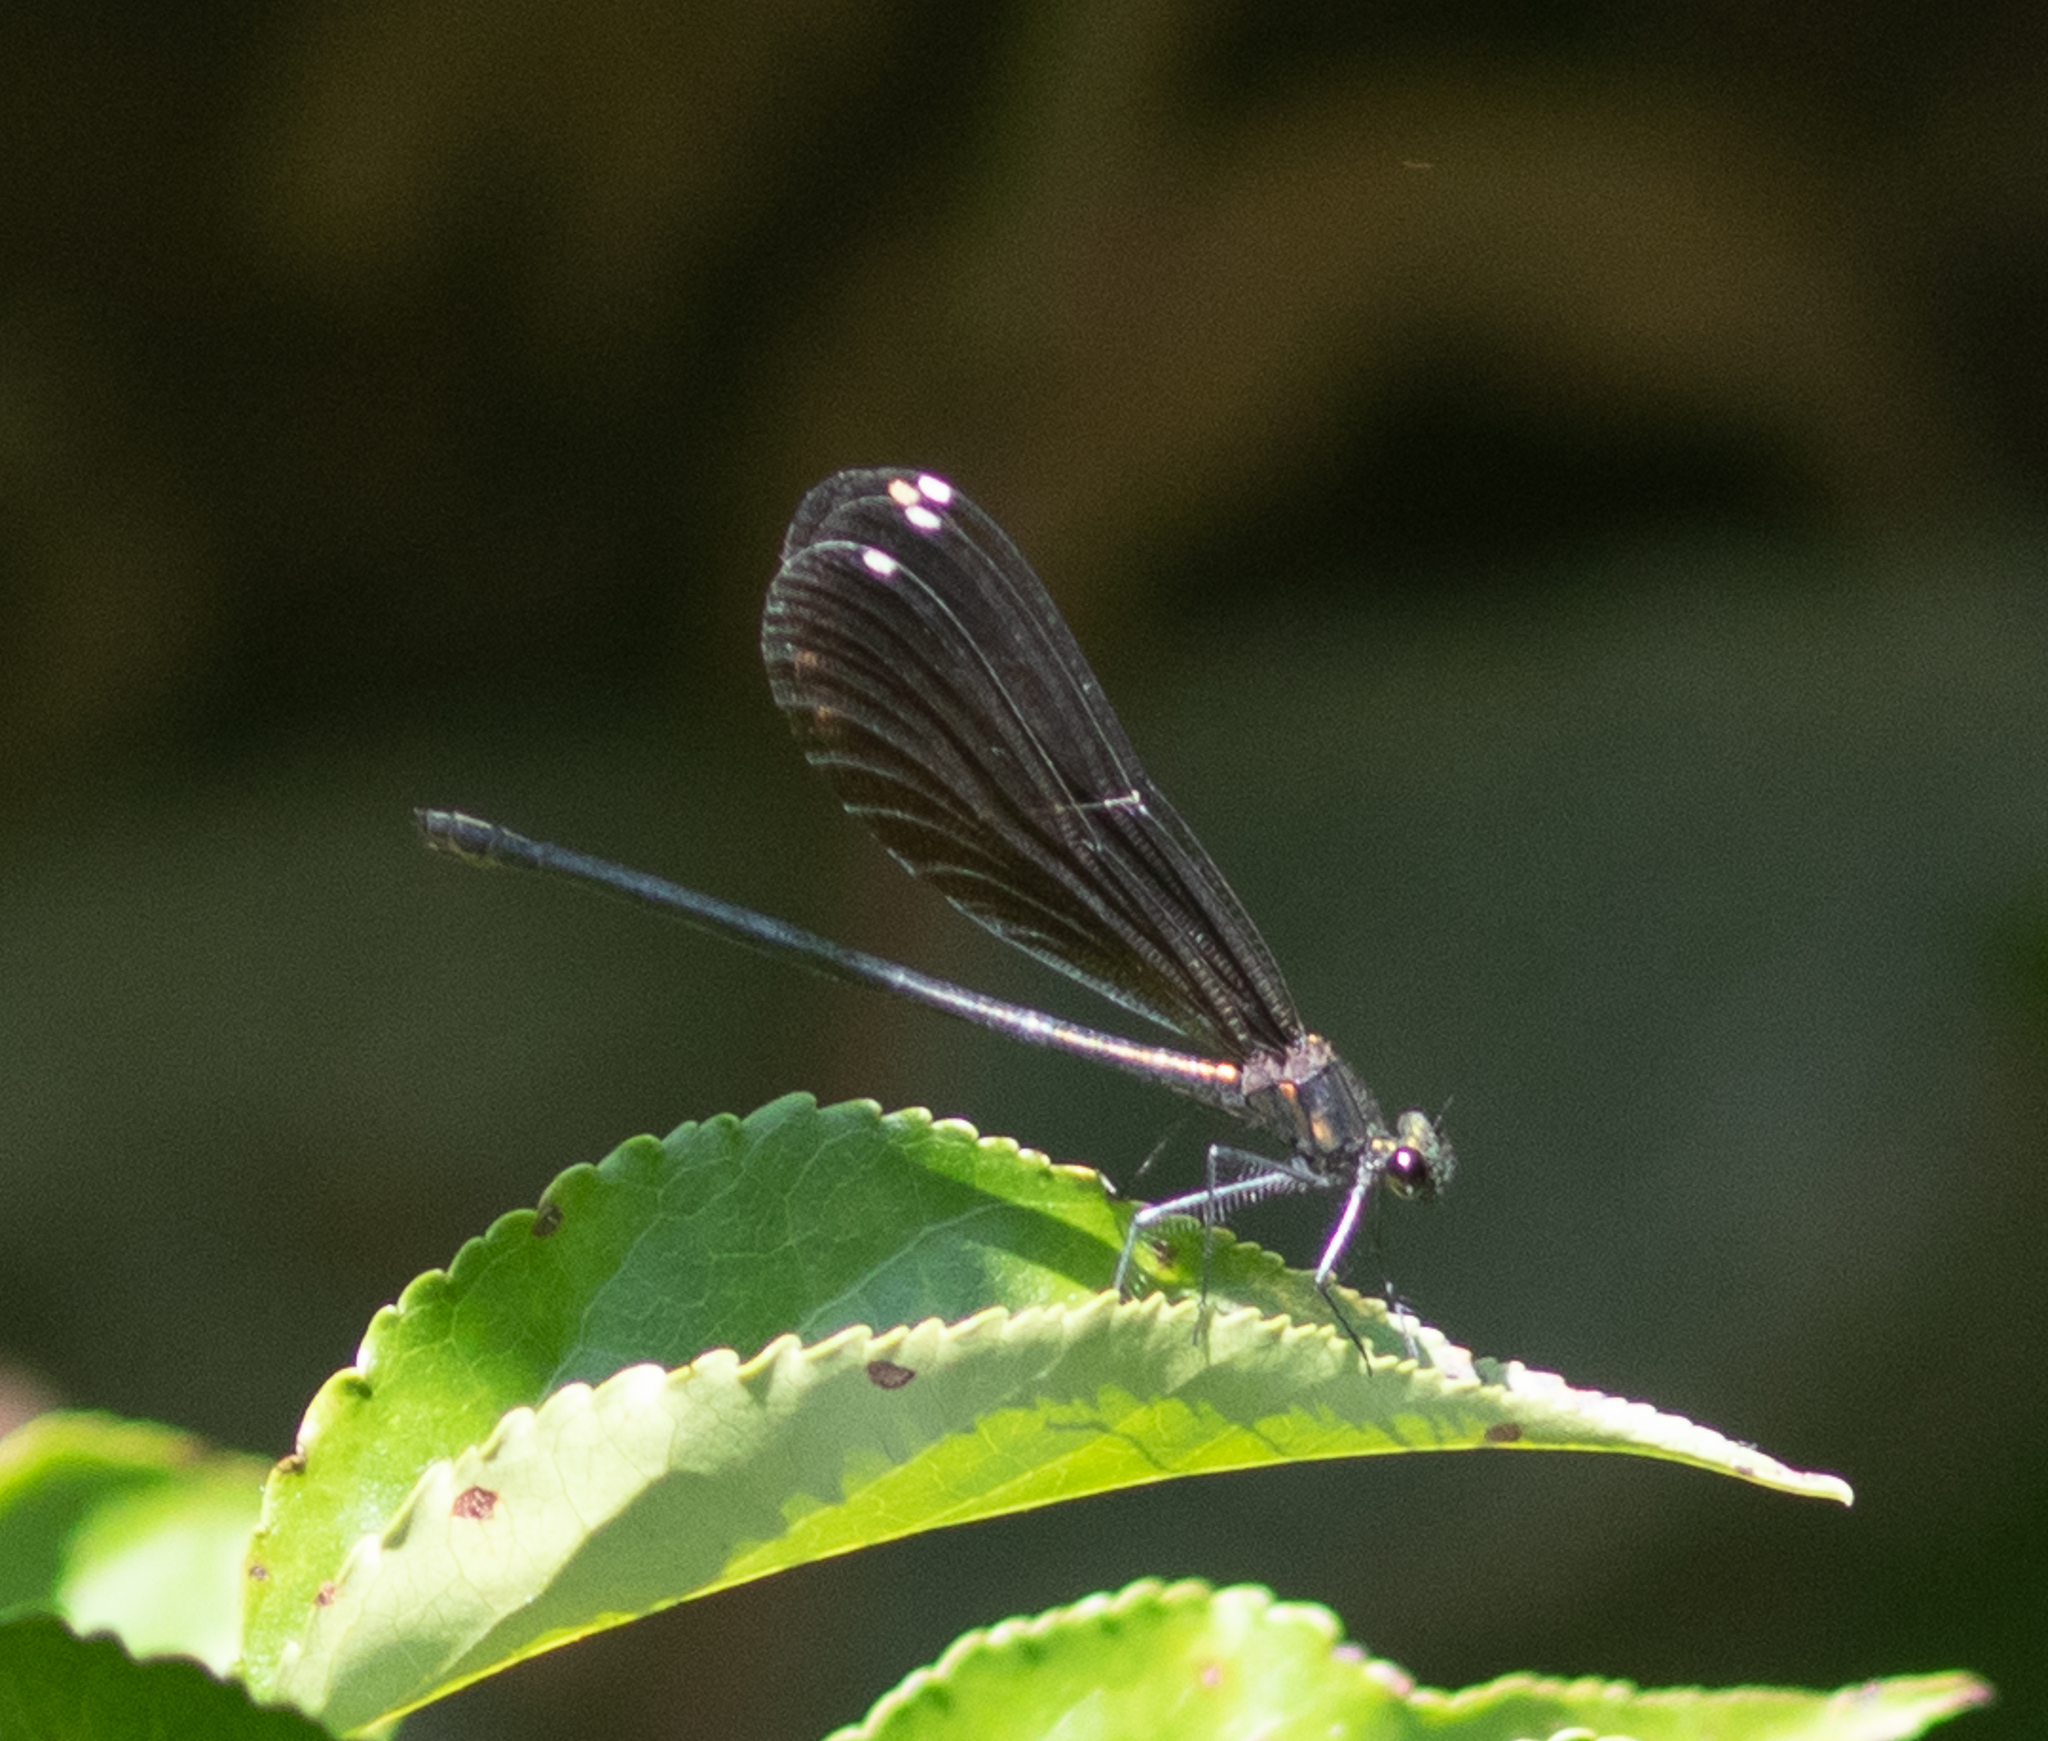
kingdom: Animalia
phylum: Arthropoda
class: Insecta
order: Odonata
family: Calopterygidae
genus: Calopteryx
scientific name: Calopteryx maculata
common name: Ebony jewelwing
